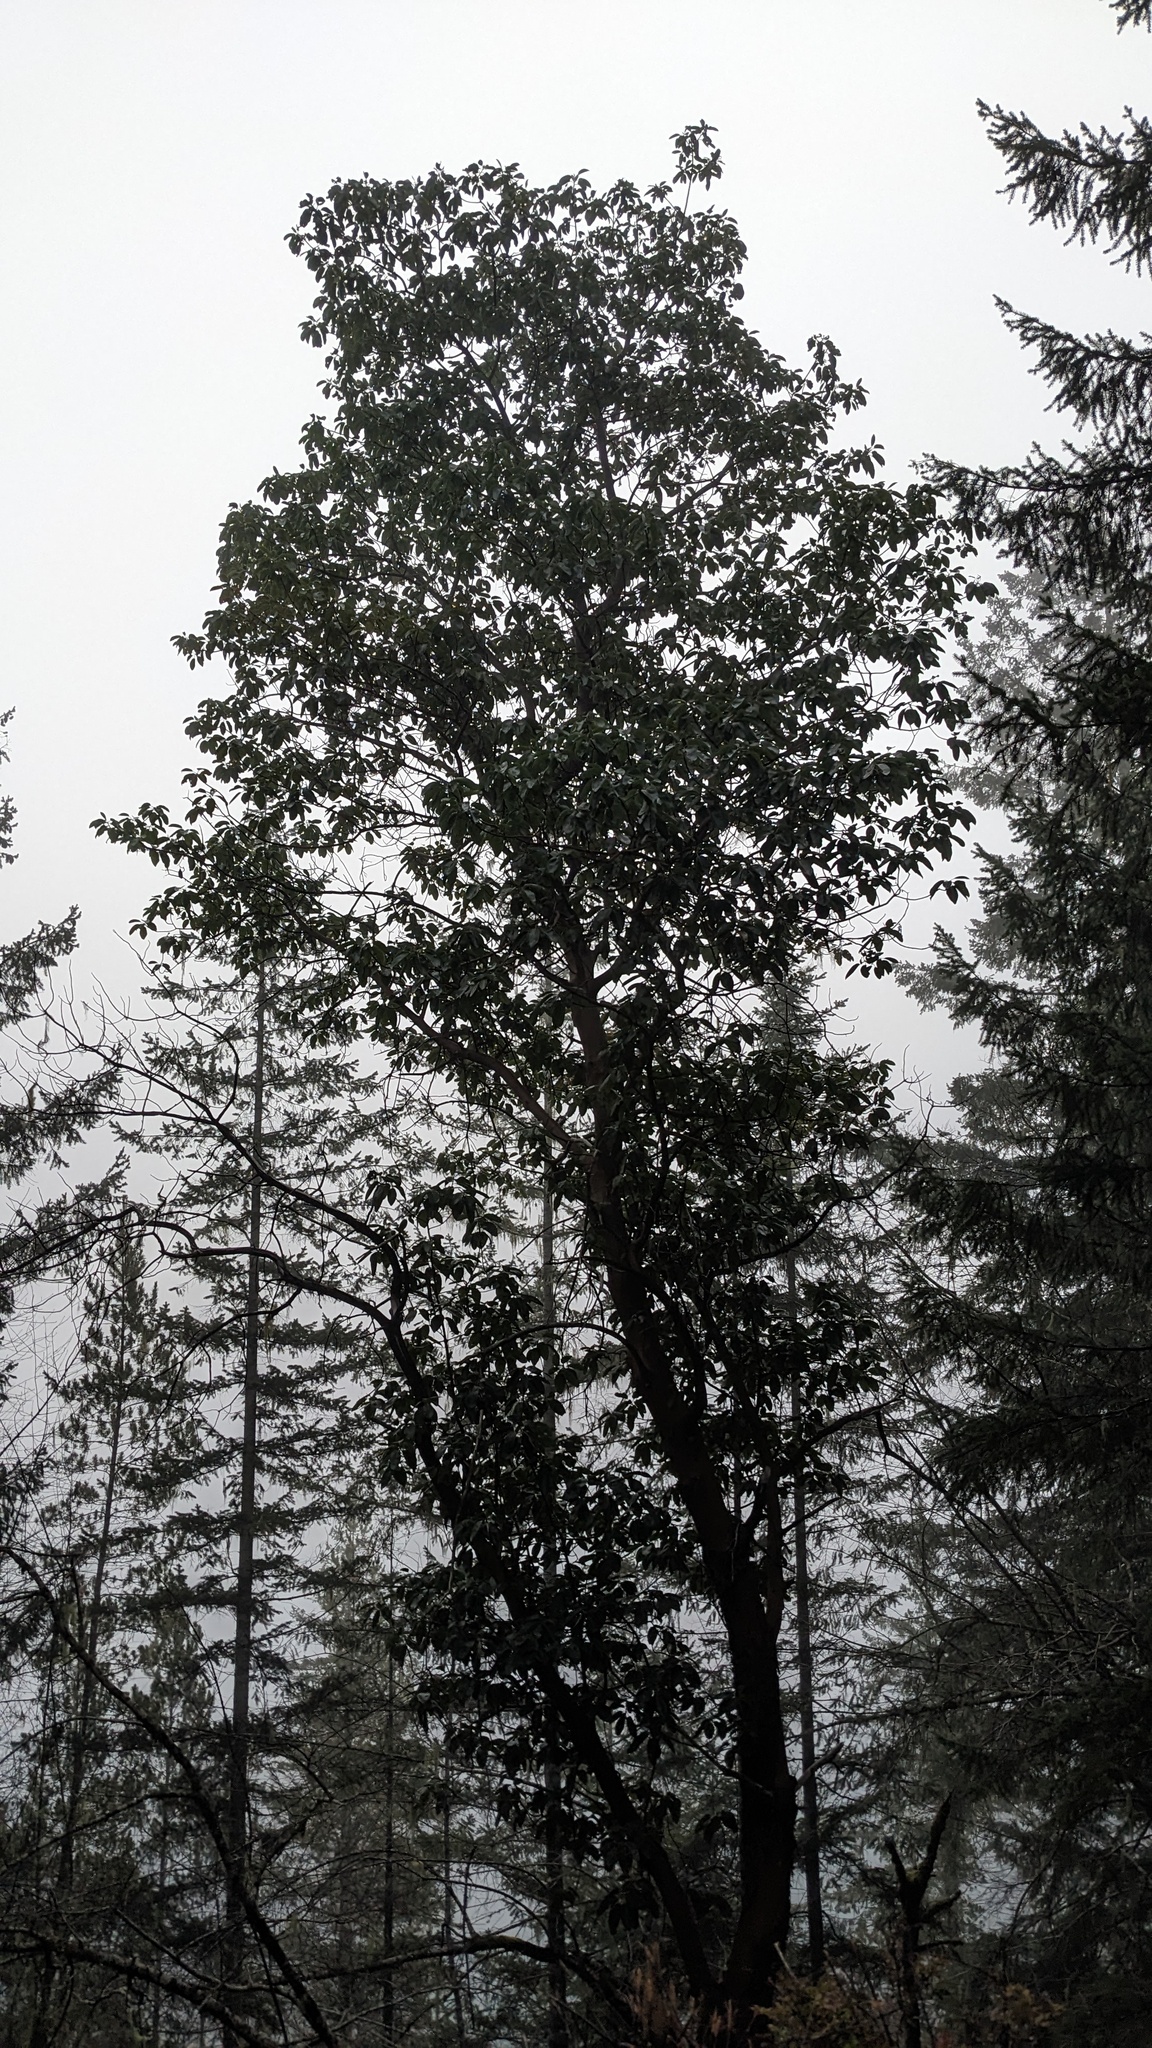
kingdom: Plantae
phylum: Tracheophyta
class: Magnoliopsida
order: Ericales
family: Ericaceae
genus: Arbutus
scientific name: Arbutus menziesii
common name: Pacific madrone
